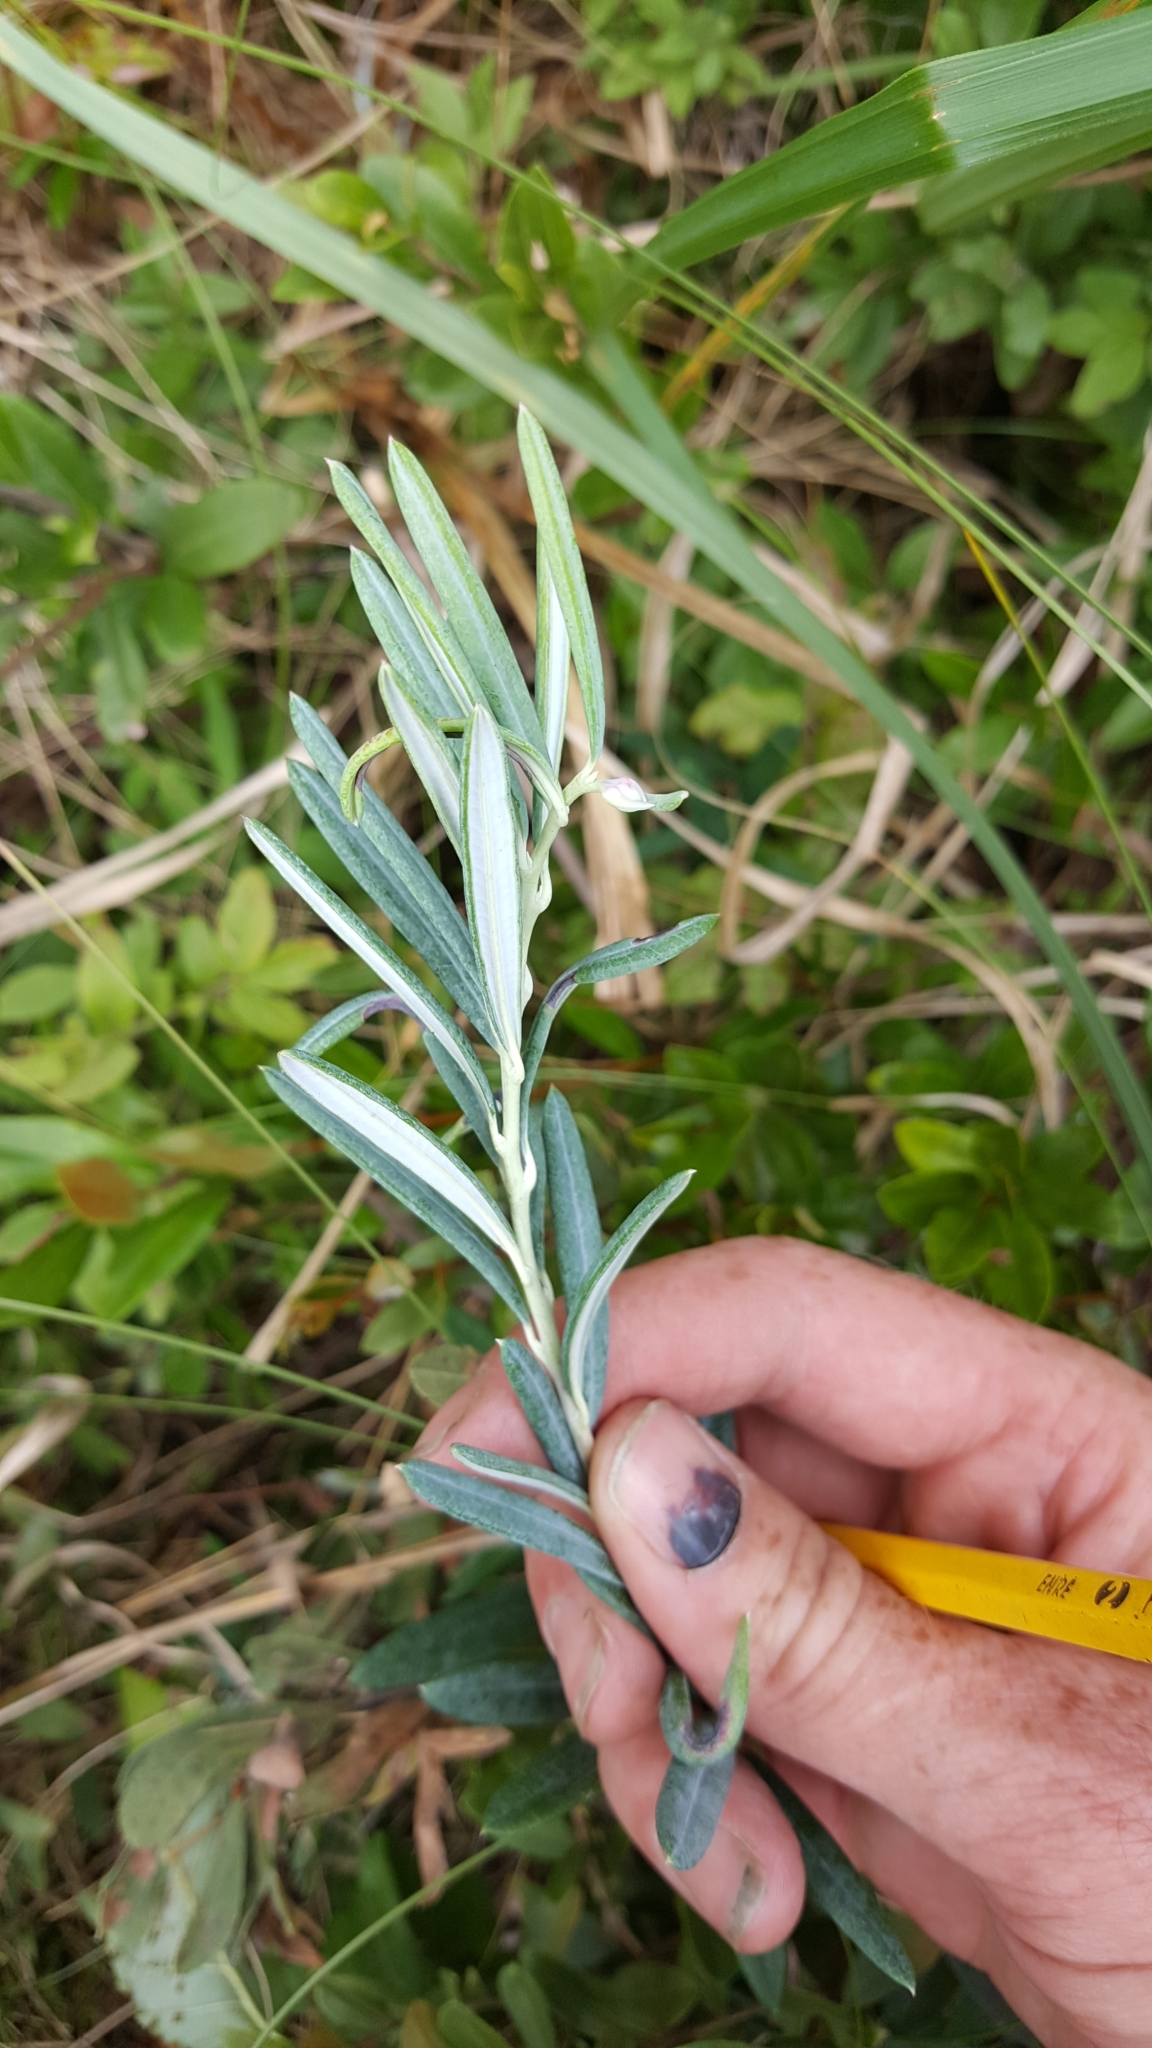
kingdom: Plantae
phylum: Tracheophyta
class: Magnoliopsida
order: Ericales
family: Ericaceae
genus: Andromeda
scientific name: Andromeda polifolia
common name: Bog-rosemary
